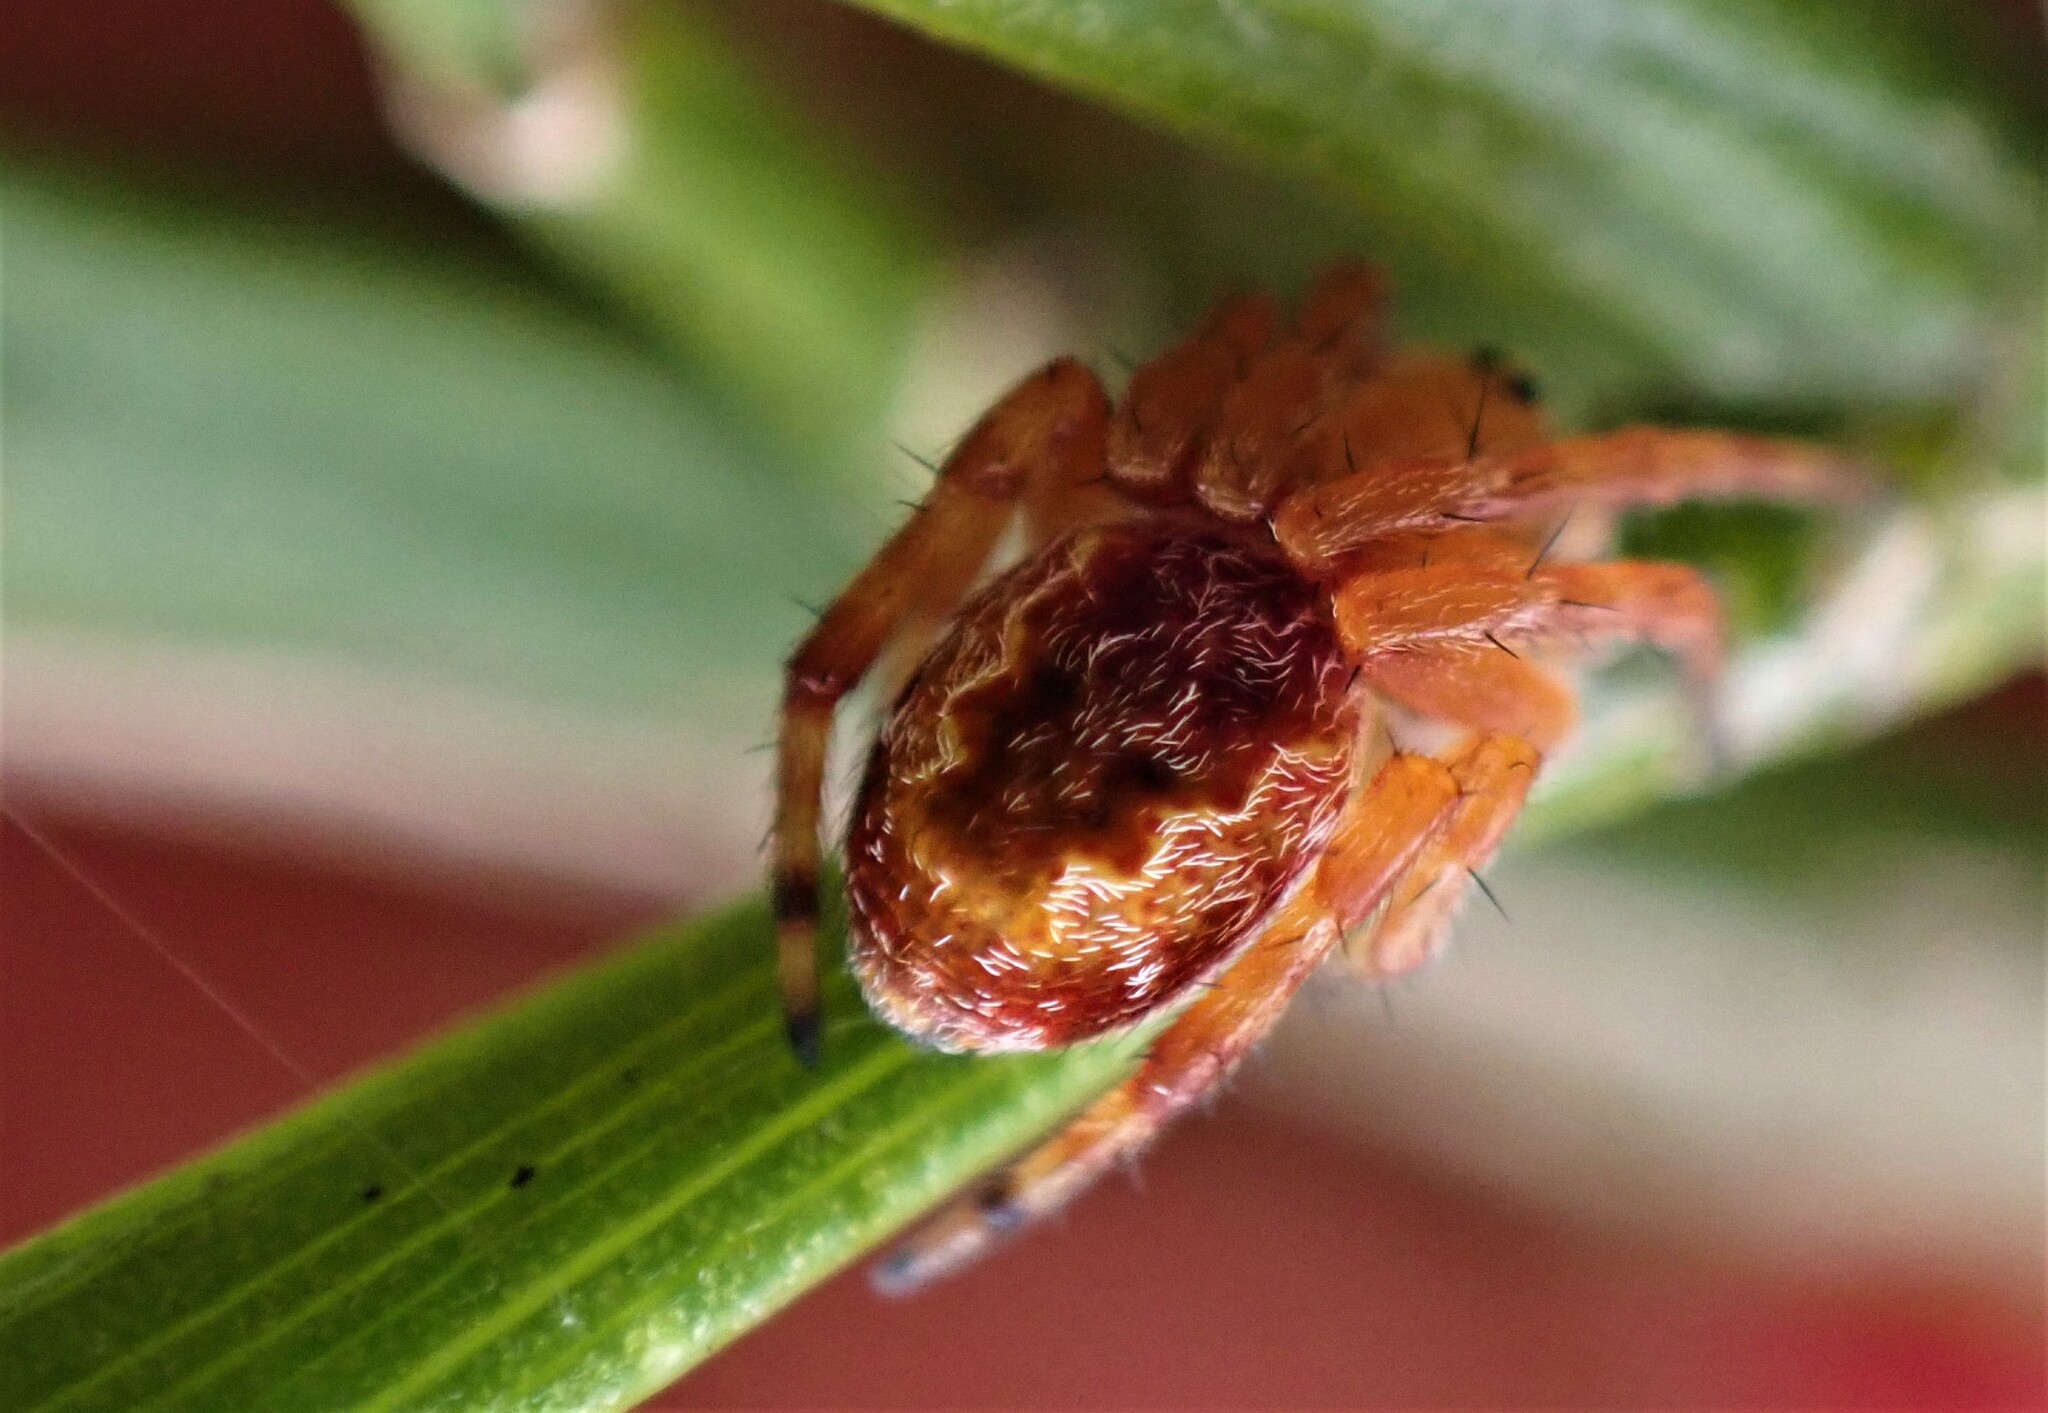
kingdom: Animalia
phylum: Arthropoda
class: Arachnida
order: Araneae
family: Araneidae
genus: Salsa
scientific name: Salsa fuliginata
